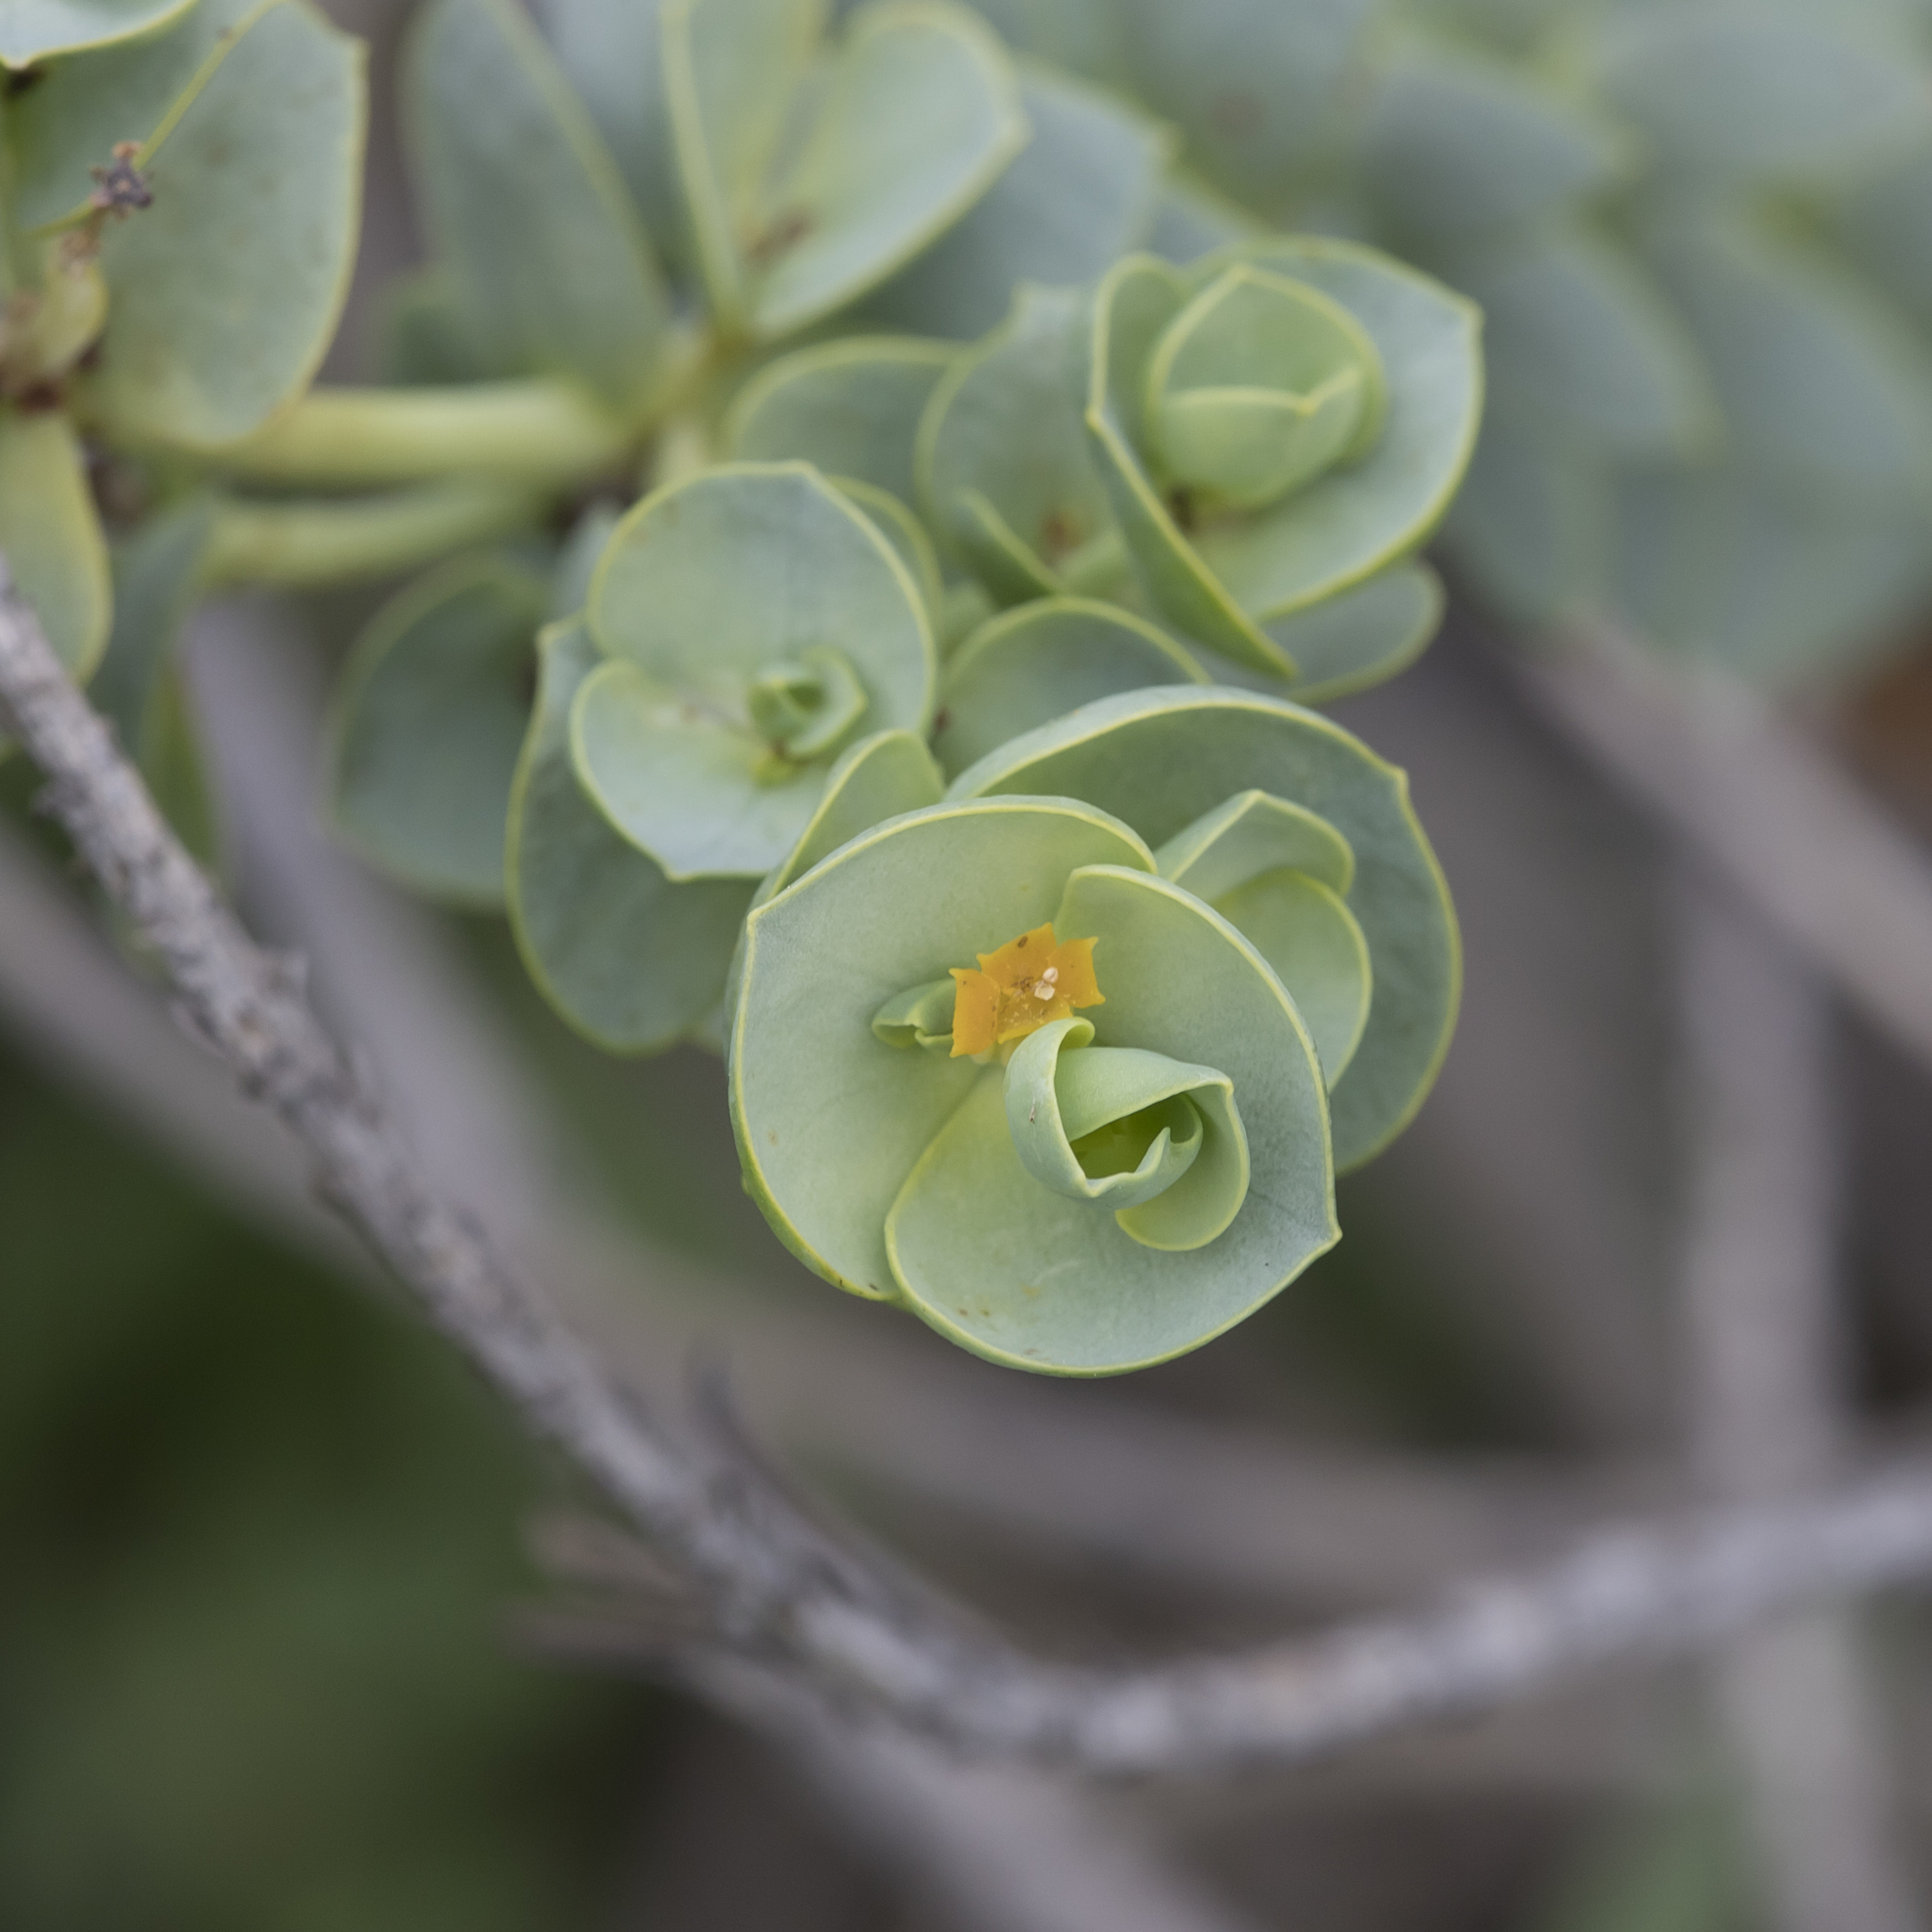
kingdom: Plantae
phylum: Tracheophyta
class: Magnoliopsida
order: Malpighiales
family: Euphorbiaceae
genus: Euphorbia
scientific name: Euphorbia paralias
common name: Sea spurge
